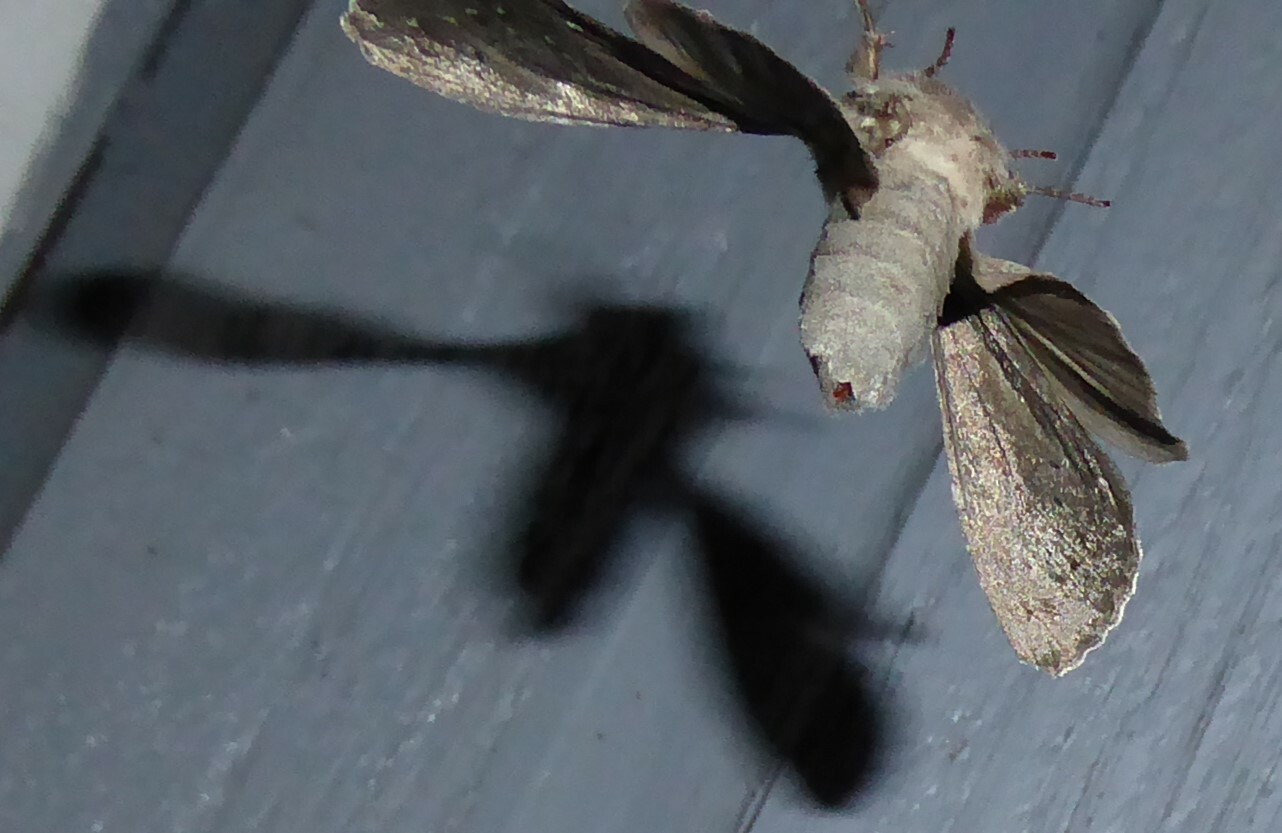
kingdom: Animalia
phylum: Arthropoda
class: Insecta
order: Lepidoptera
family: Noctuidae
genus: Ichneutica
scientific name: Ichneutica nullifera
